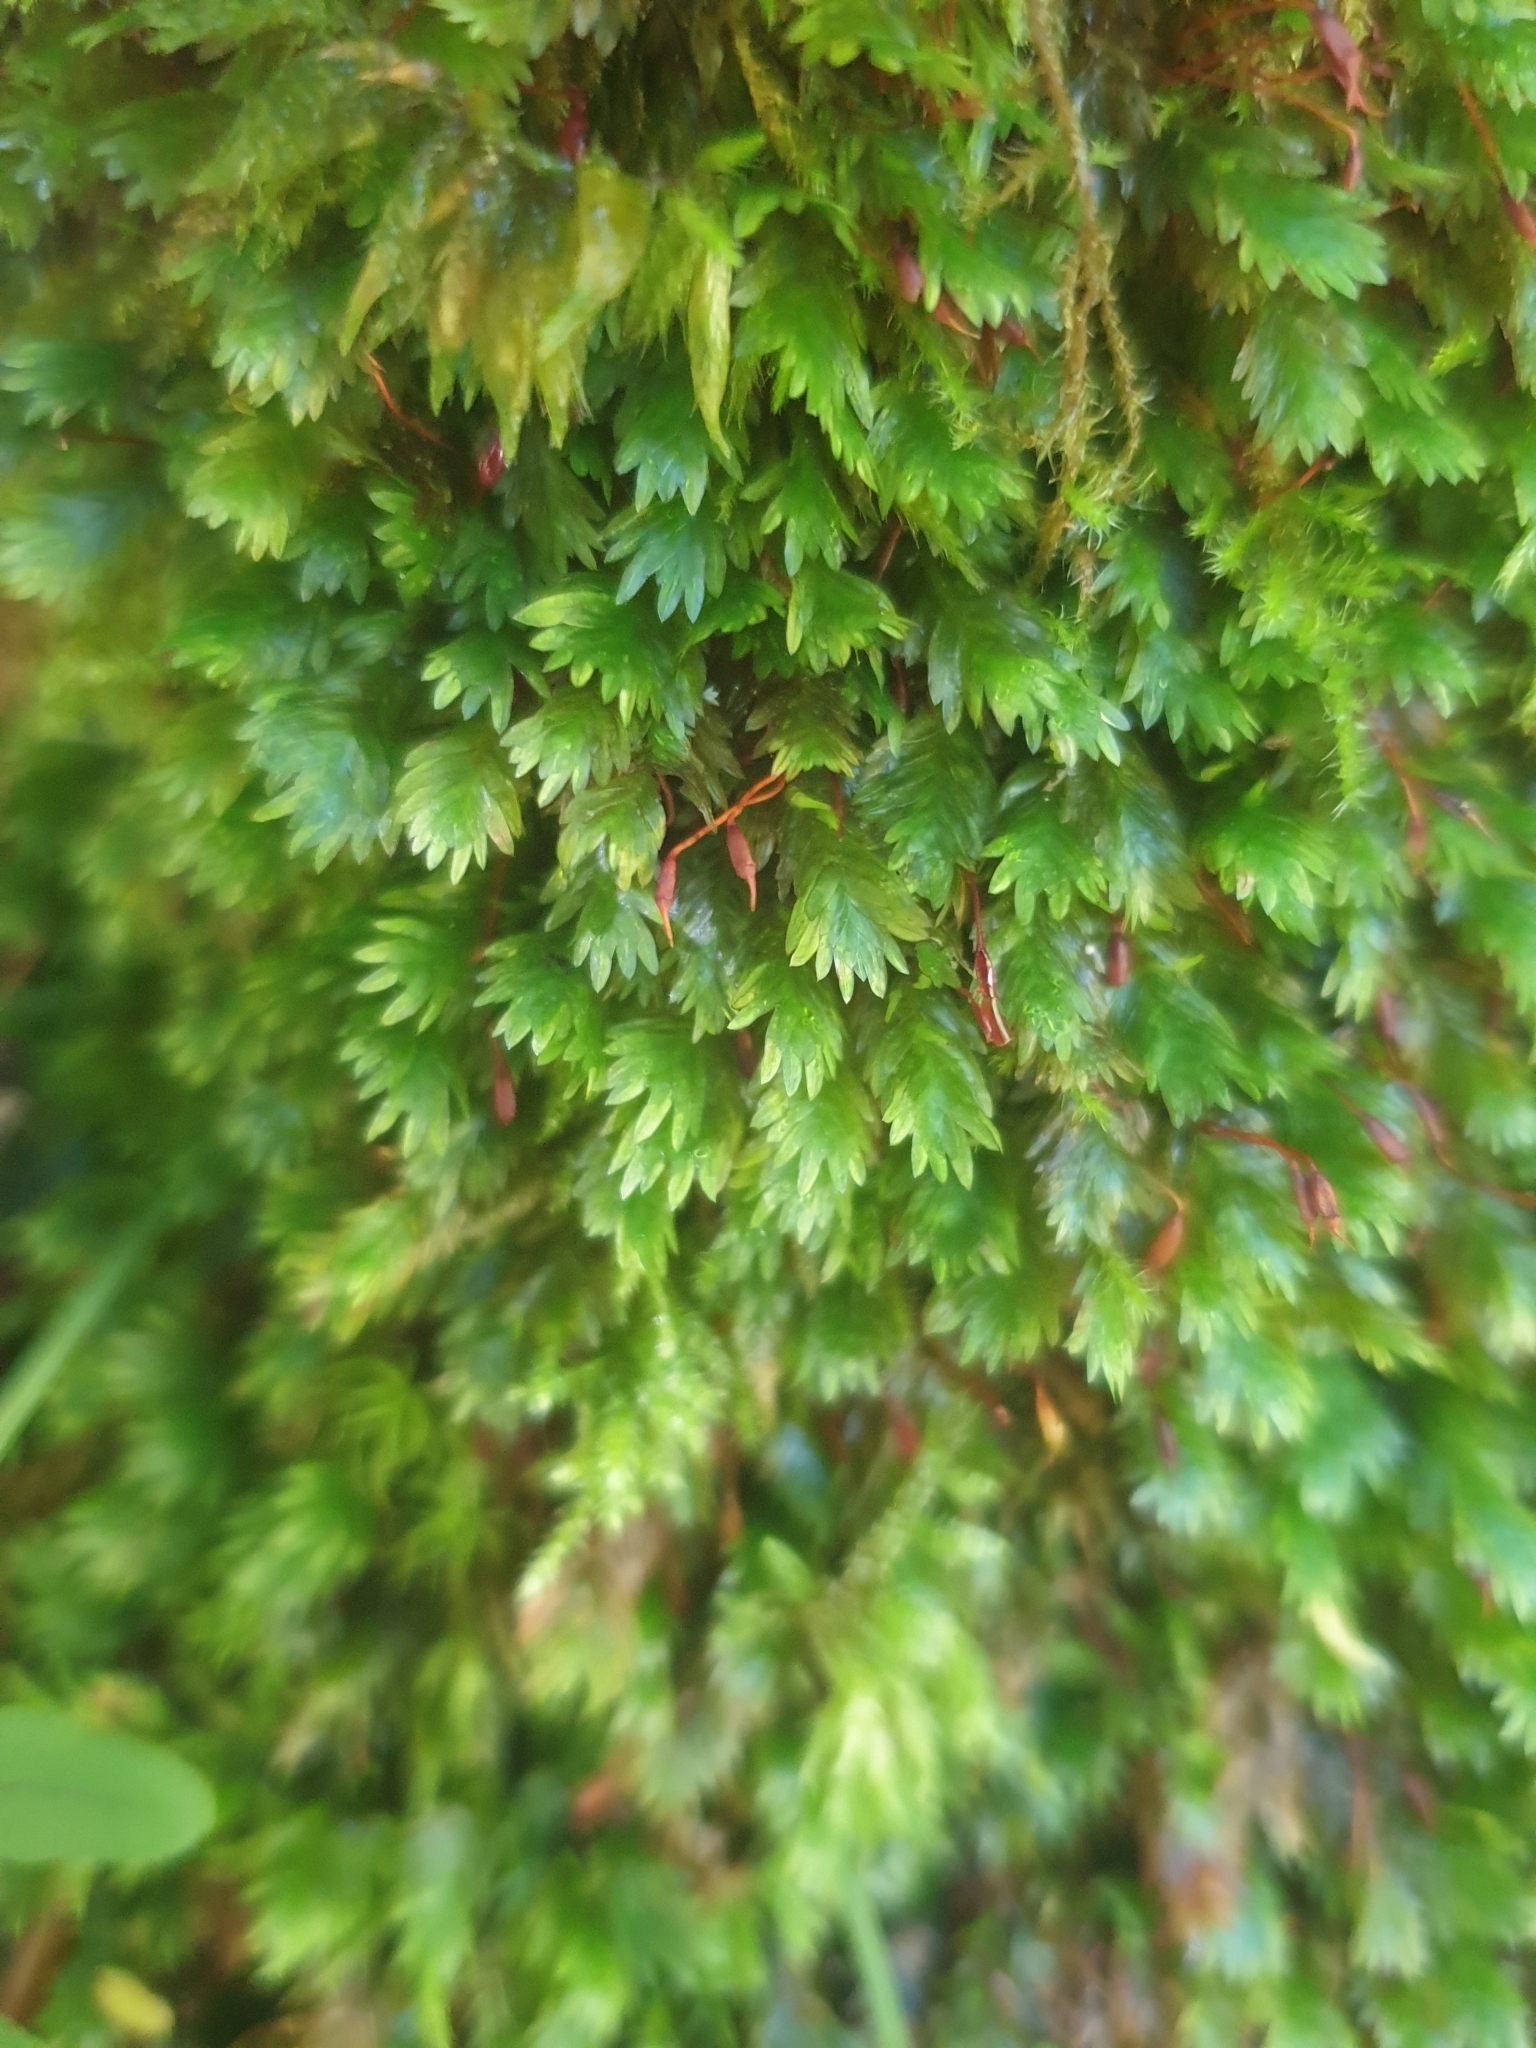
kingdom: Plantae
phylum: Bryophyta
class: Bryopsida
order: Dicranales
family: Fissidentaceae
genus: Fissidens
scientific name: Fissidens dubius
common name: Rock pocket moss
